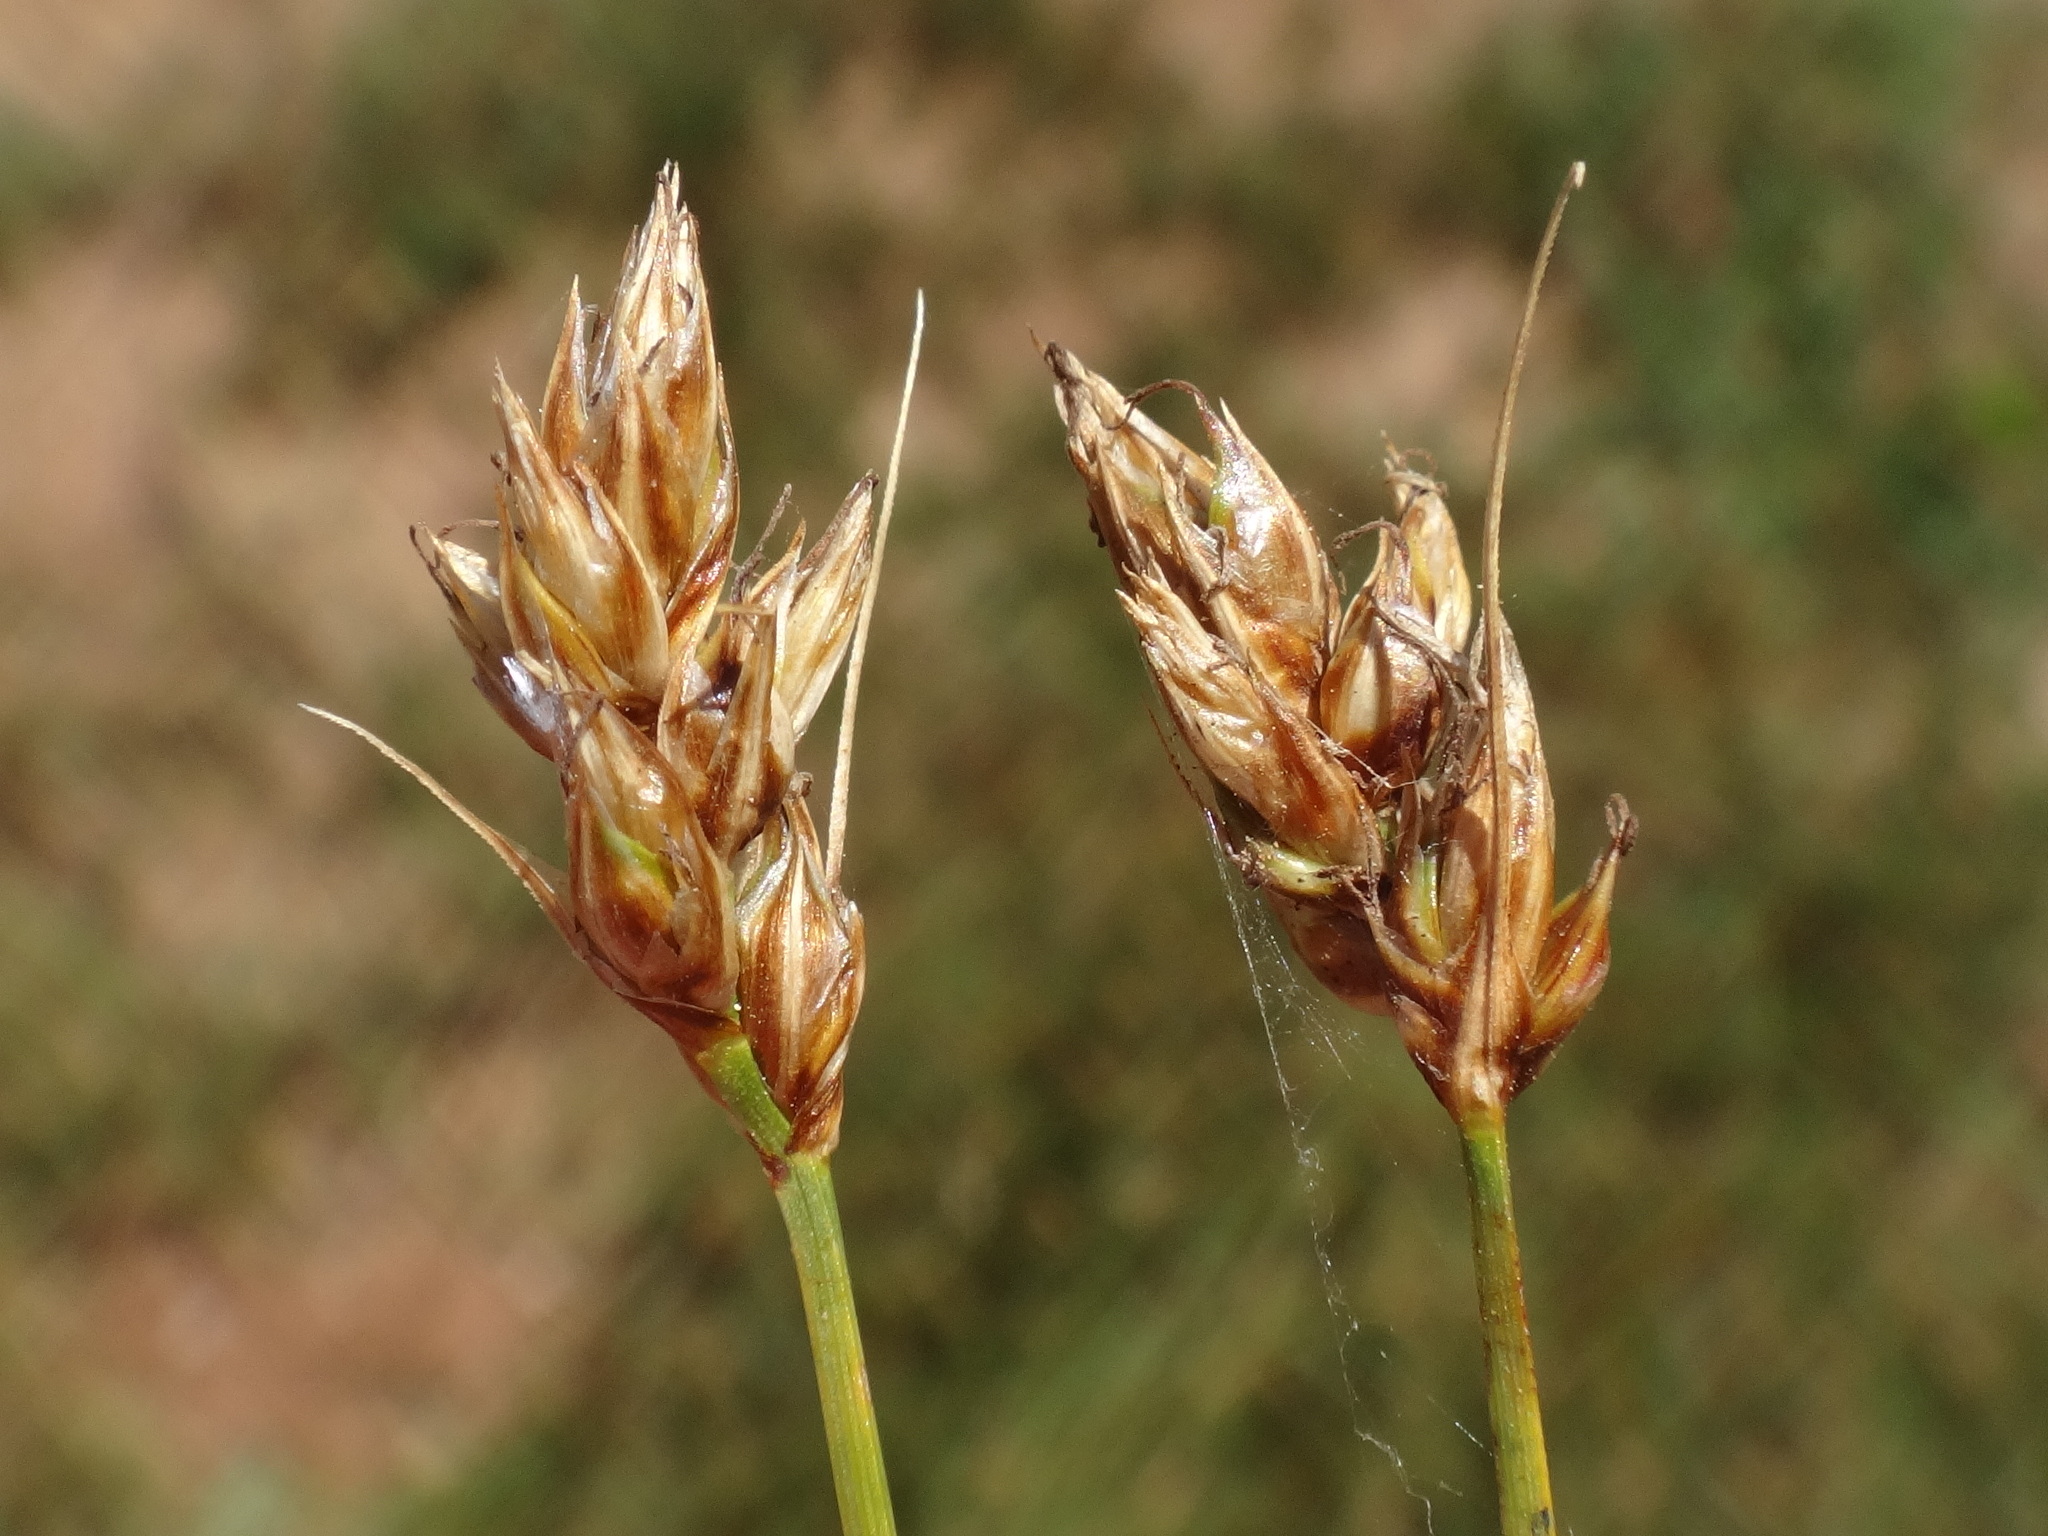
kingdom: Plantae
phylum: Tracheophyta
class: Liliopsida
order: Poales
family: Cyperaceae
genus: Carex
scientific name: Carex divisa
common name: Divided sedge
